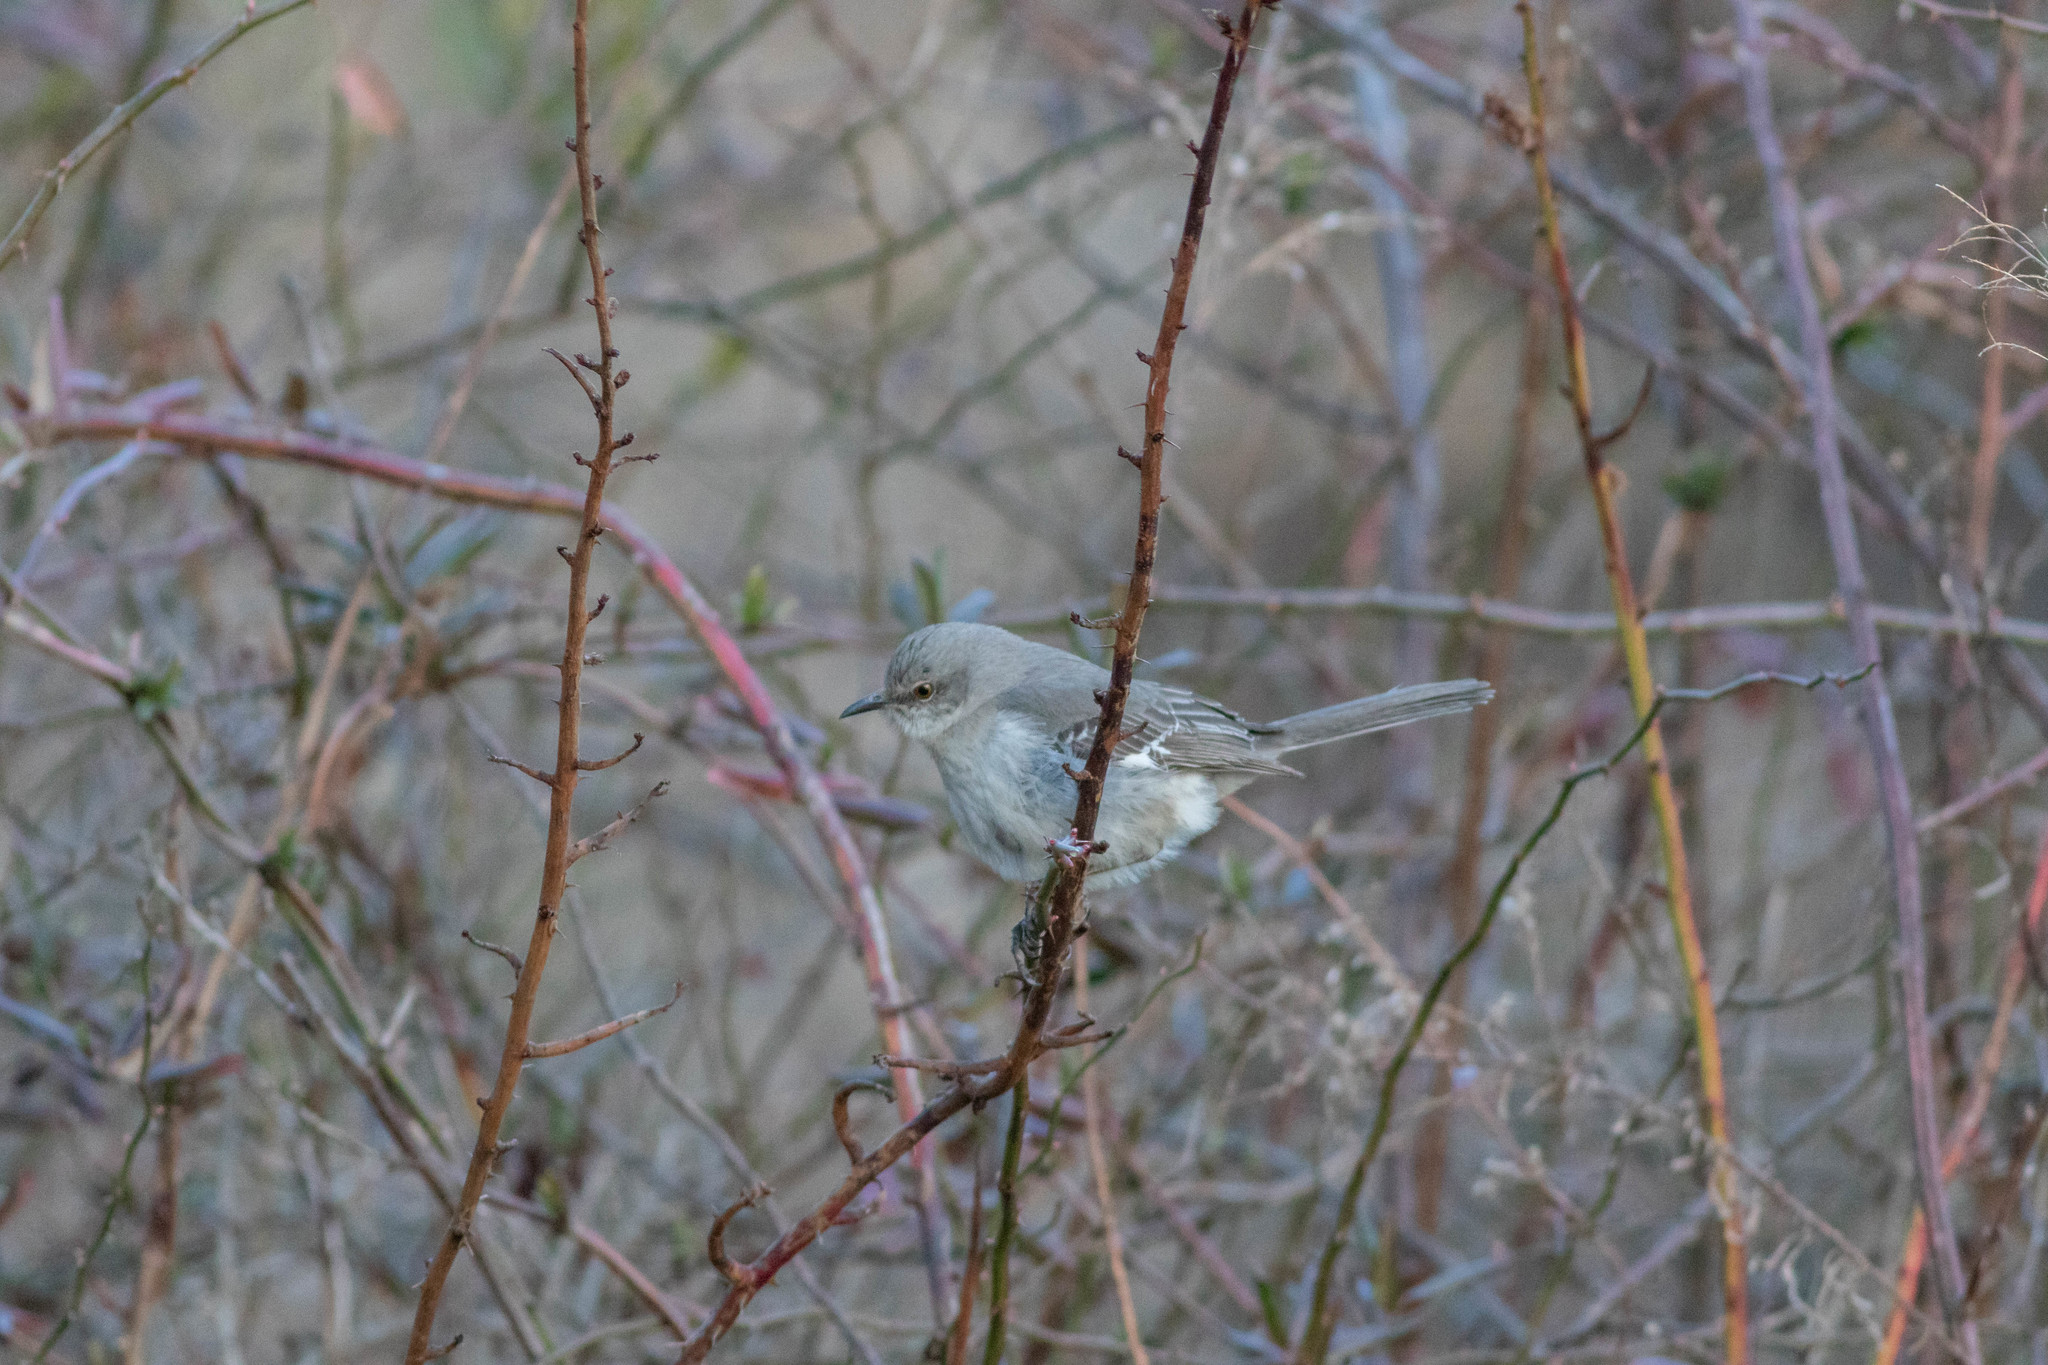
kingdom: Animalia
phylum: Chordata
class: Aves
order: Passeriformes
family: Mimidae
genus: Mimus
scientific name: Mimus polyglottos
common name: Northern mockingbird
